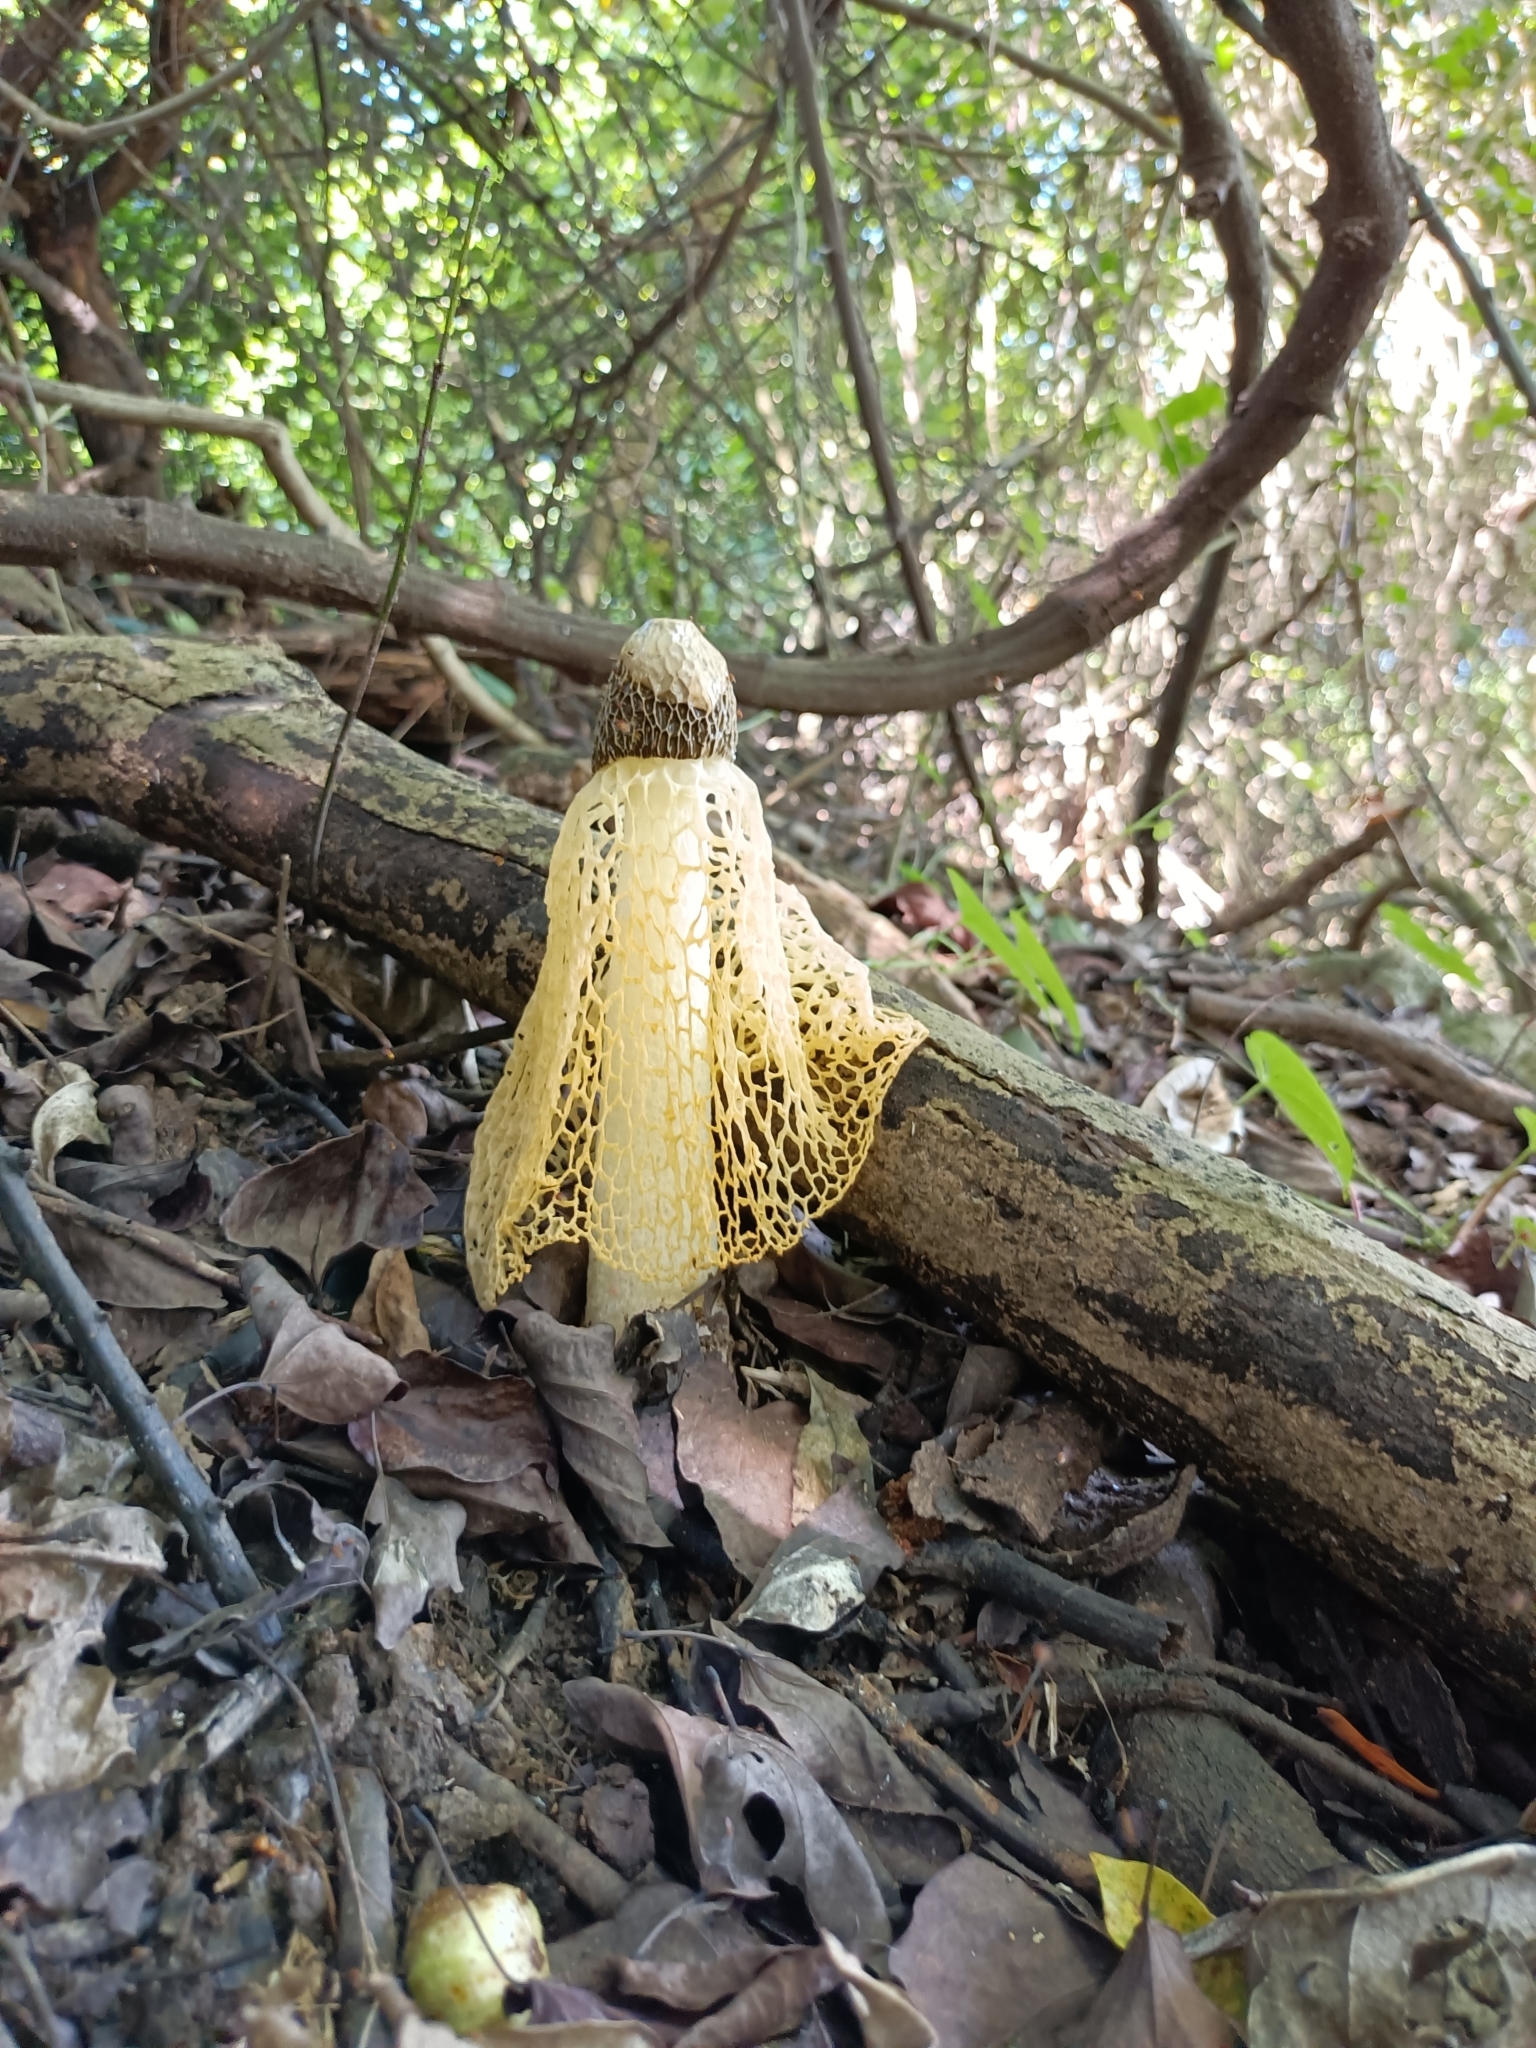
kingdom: Fungi
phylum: Basidiomycota
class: Agaricomycetes
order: Phallales
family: Phallaceae
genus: Phallus
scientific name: Phallus lutescens
